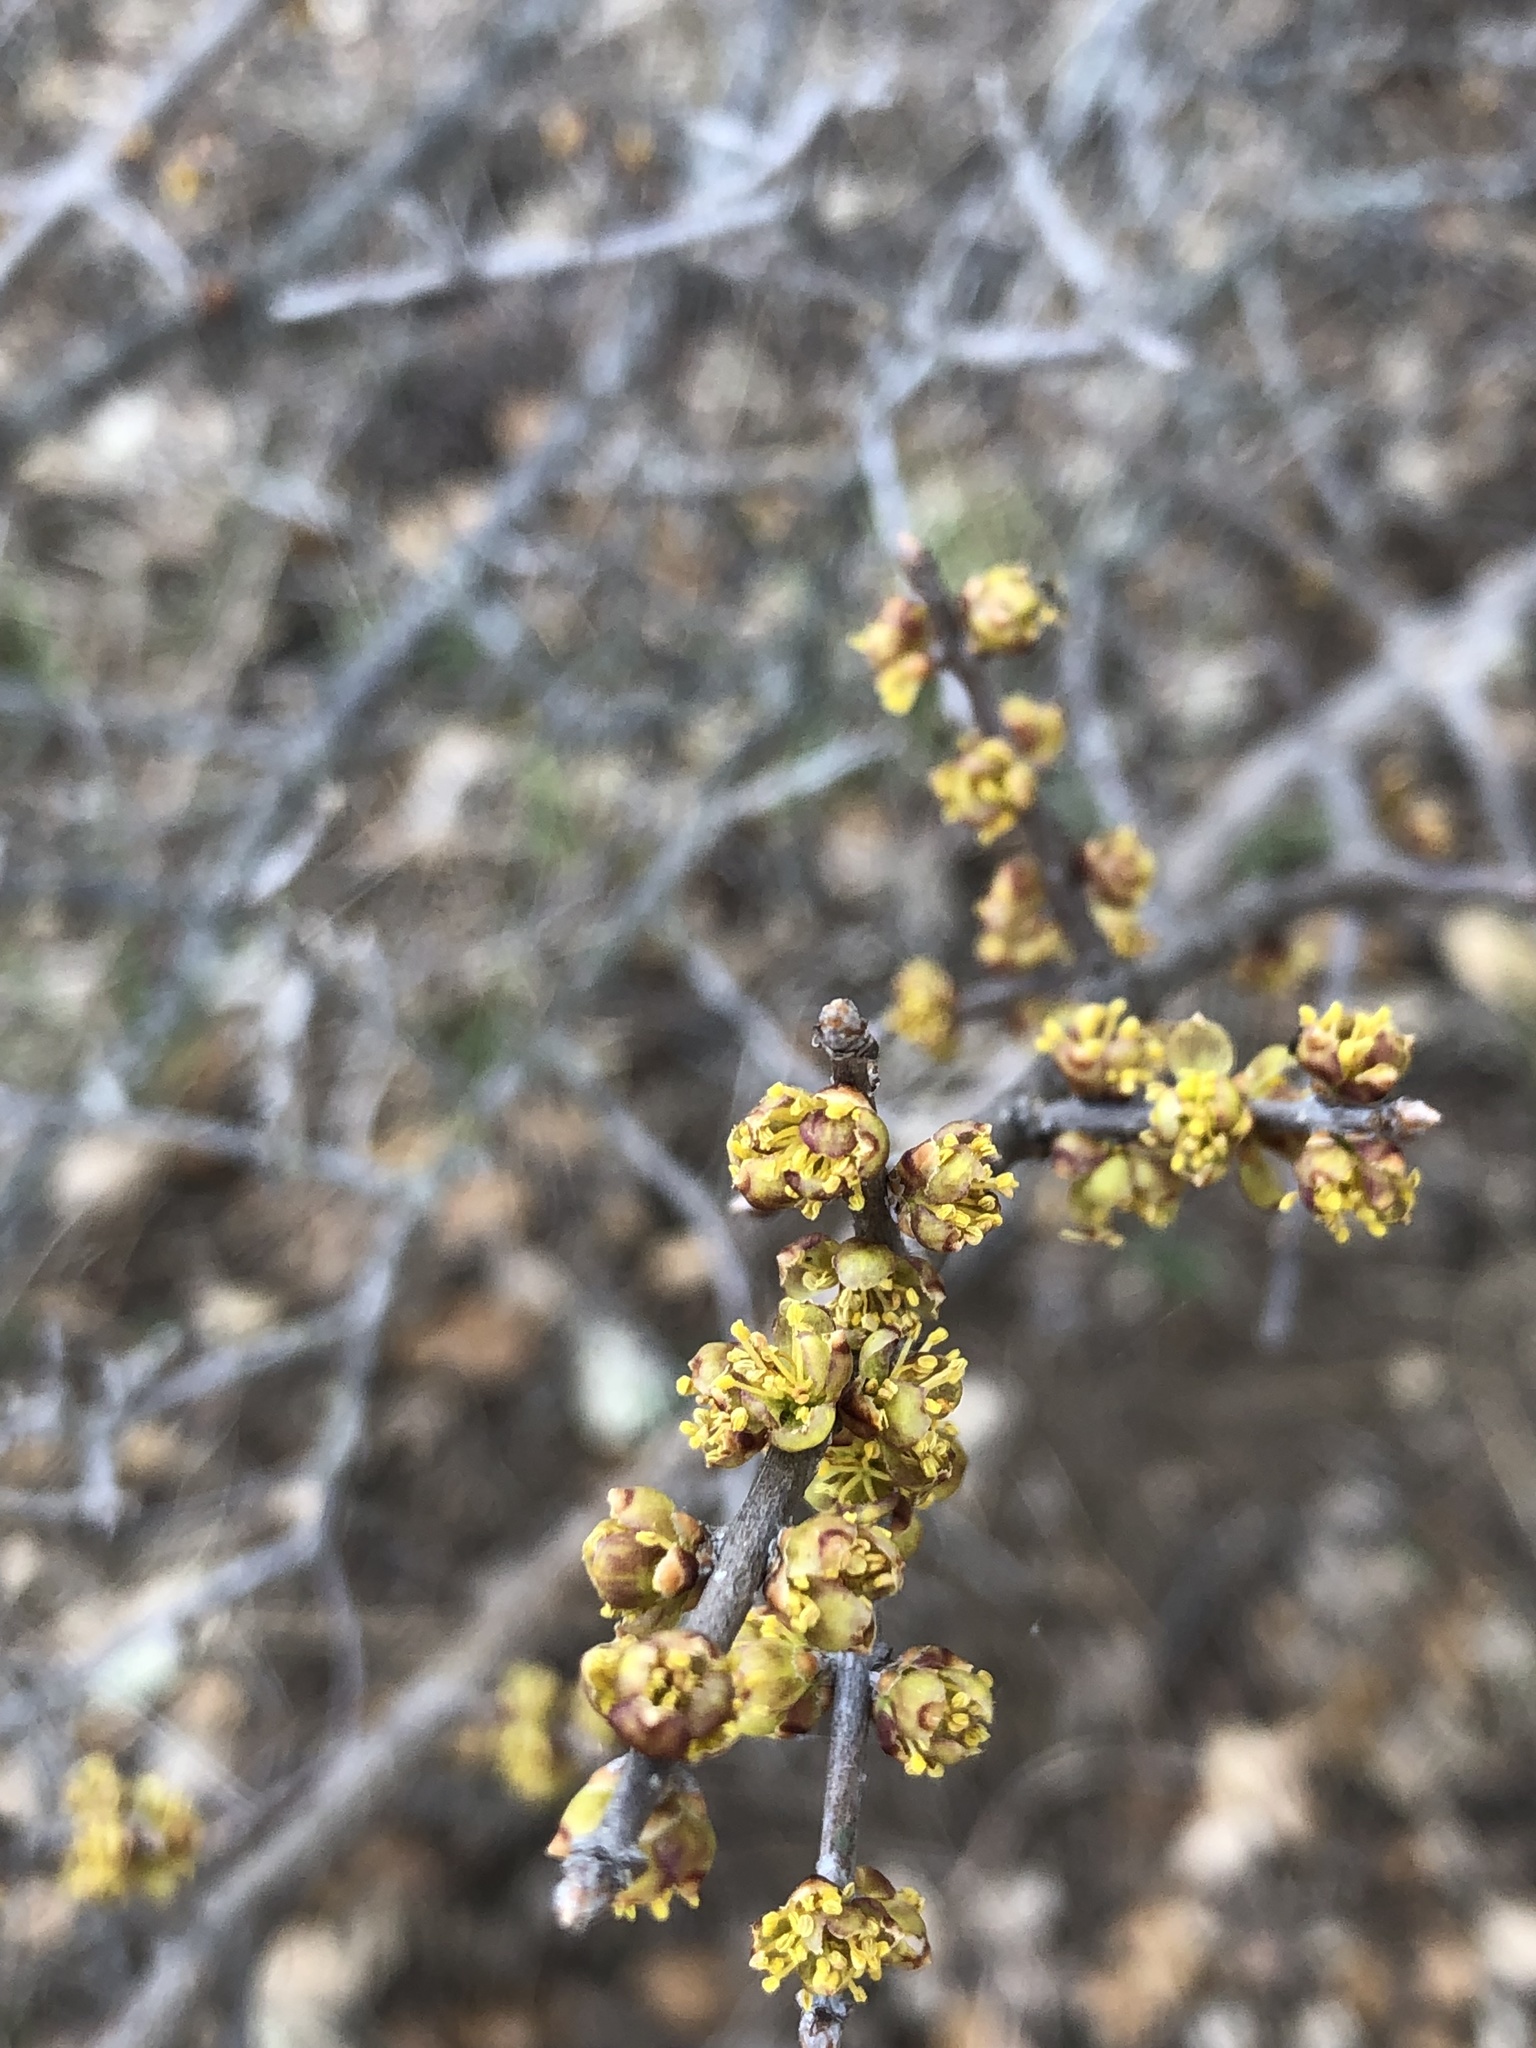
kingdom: Plantae
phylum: Tracheophyta
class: Magnoliopsida
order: Lamiales
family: Oleaceae
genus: Forestiera
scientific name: Forestiera pubescens
